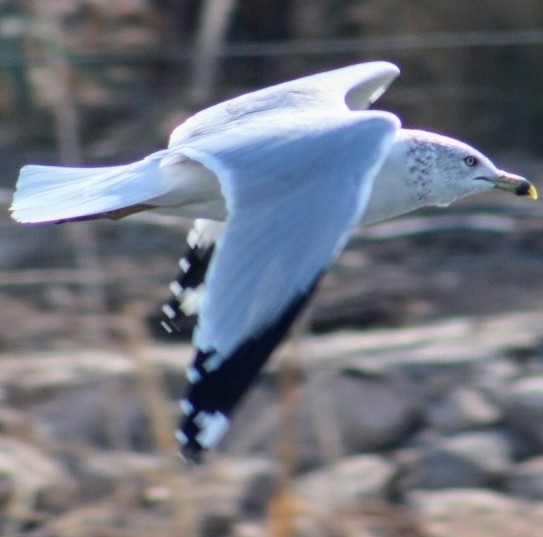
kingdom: Animalia
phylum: Chordata
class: Aves
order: Charadriiformes
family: Laridae
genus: Larus
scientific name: Larus delawarensis
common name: Ring-billed gull
